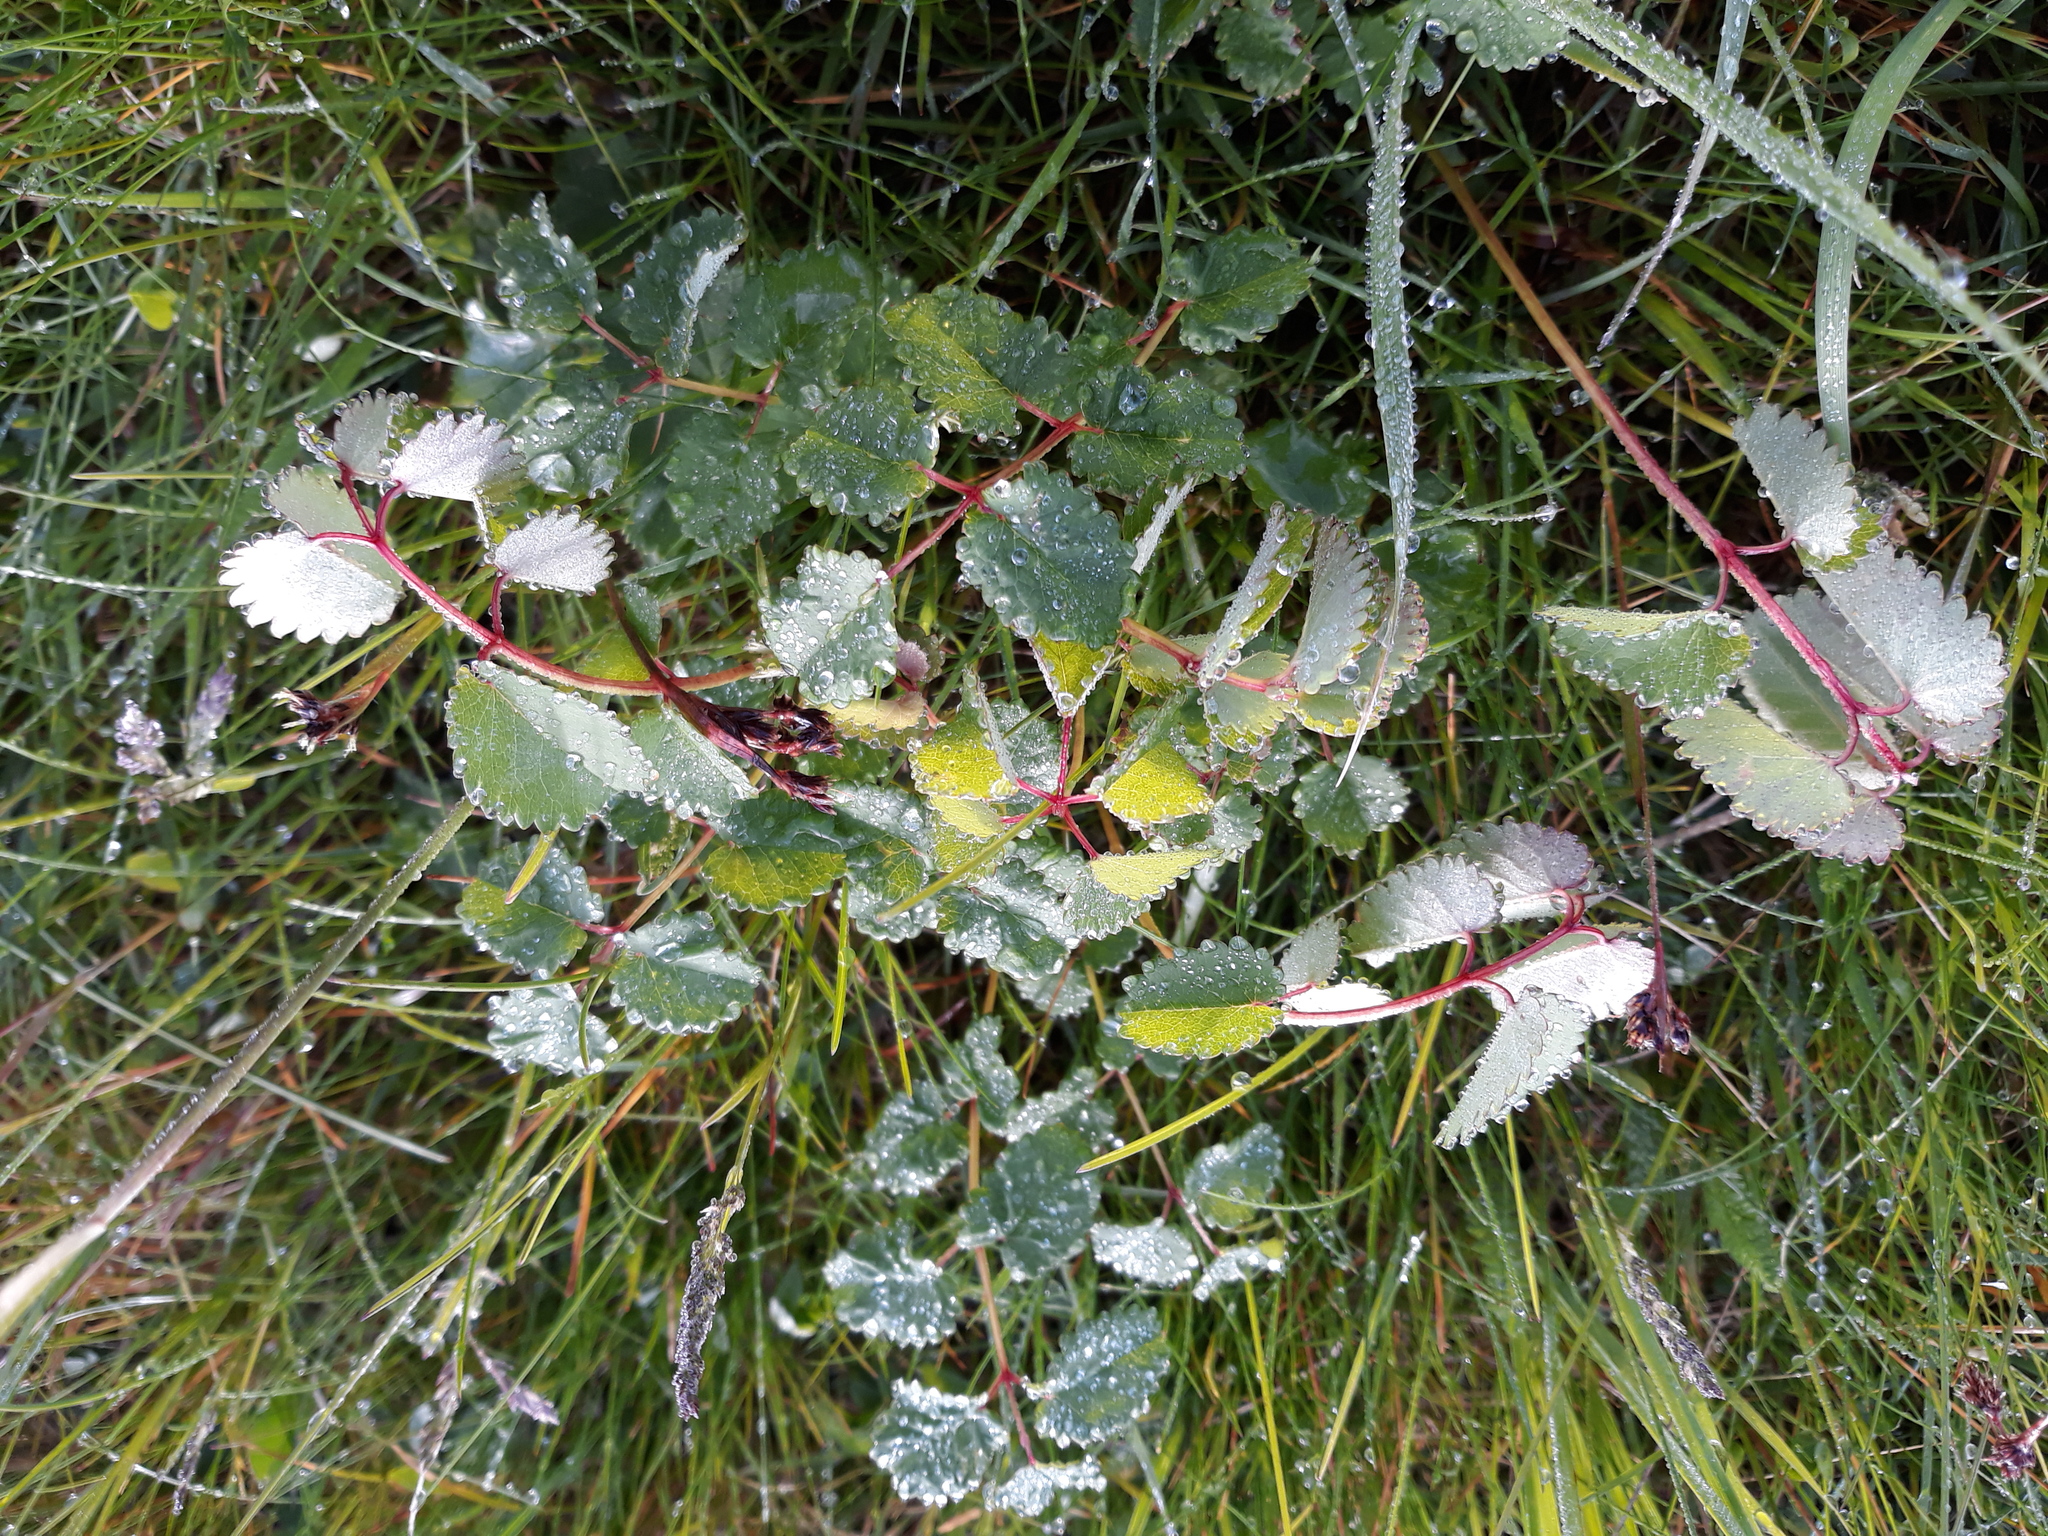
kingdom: Plantae
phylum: Tracheophyta
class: Magnoliopsida
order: Rosales
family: Rosaceae
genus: Poterium
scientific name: Poterium sanguisorba
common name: Salad burnet
